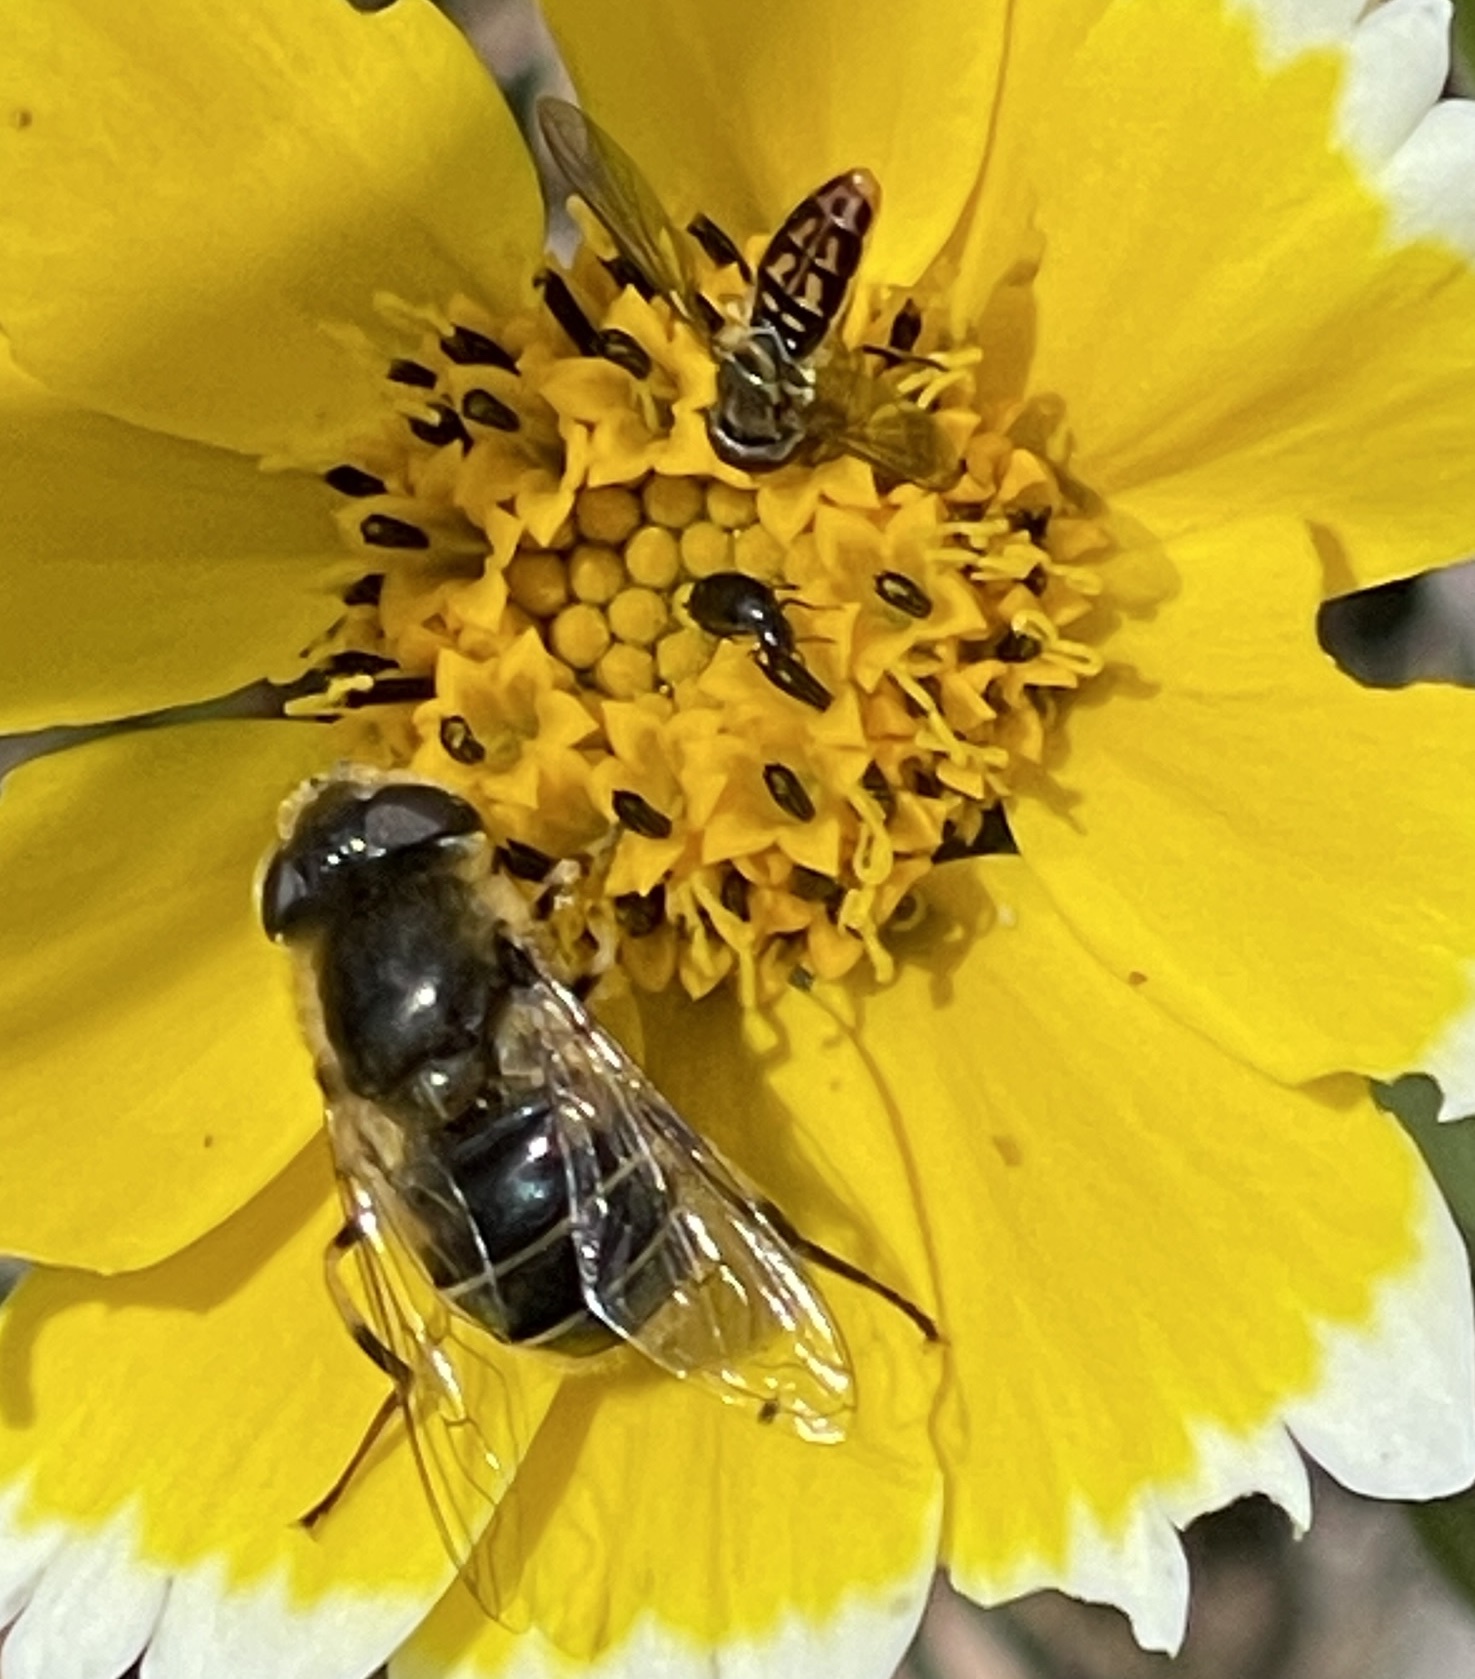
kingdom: Animalia
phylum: Arthropoda
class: Insecta
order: Diptera
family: Syrphidae
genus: Eristalis
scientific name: Eristalis hirta
